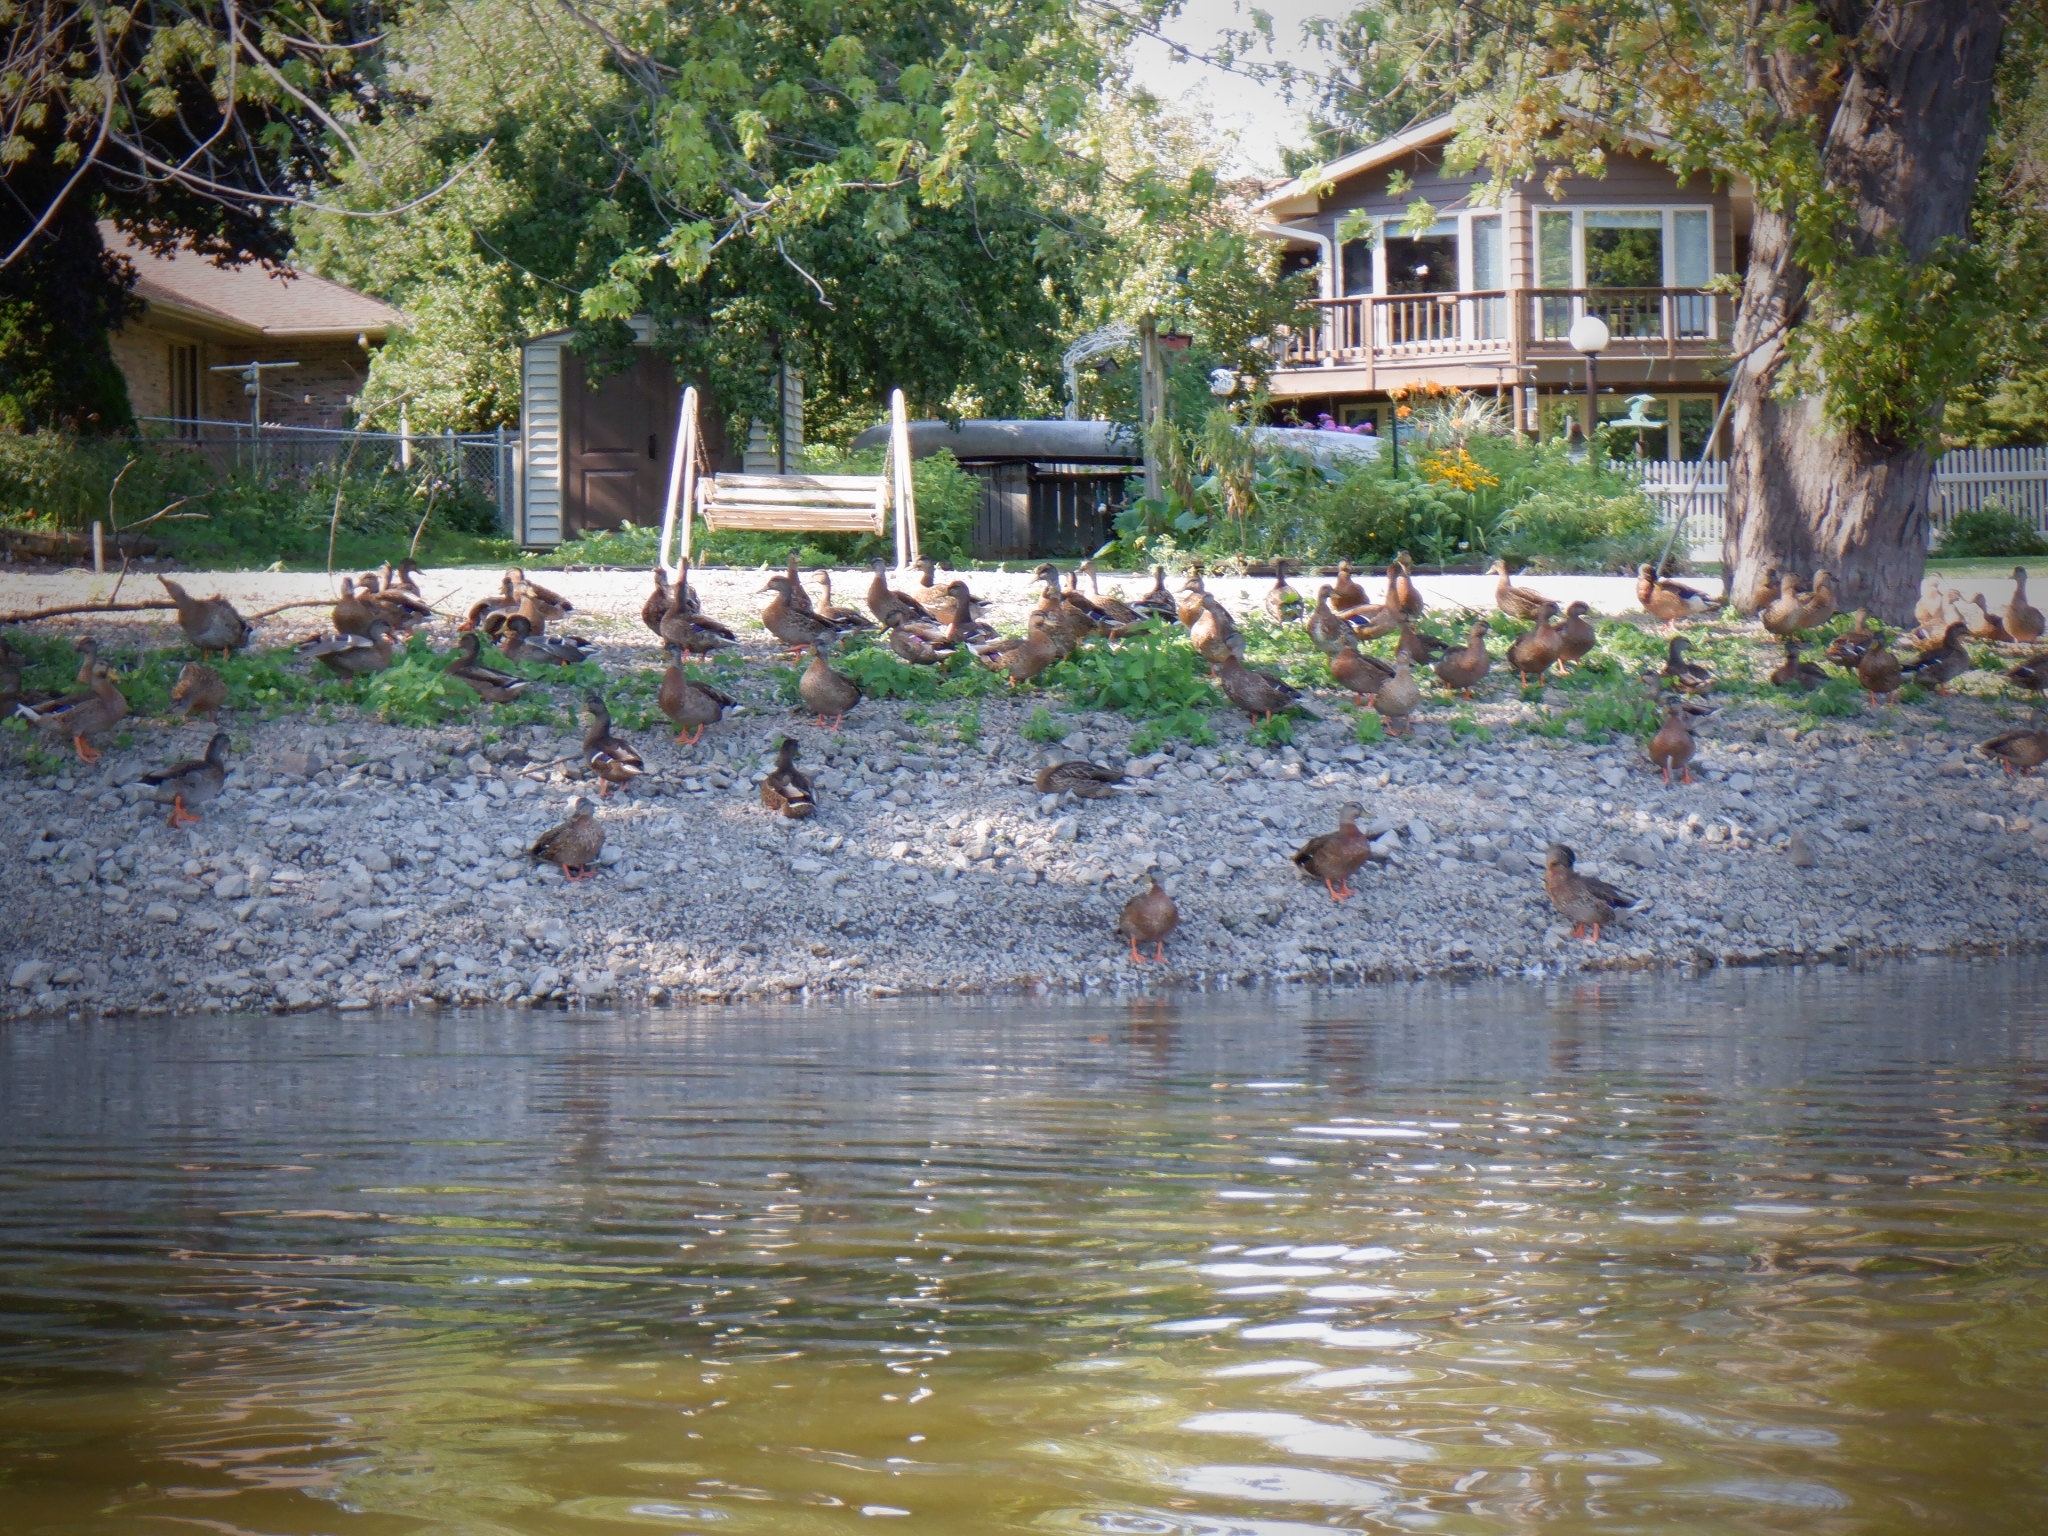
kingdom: Animalia
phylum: Chordata
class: Aves
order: Anseriformes
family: Anatidae
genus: Anas
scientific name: Anas platyrhynchos
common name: Mallard
